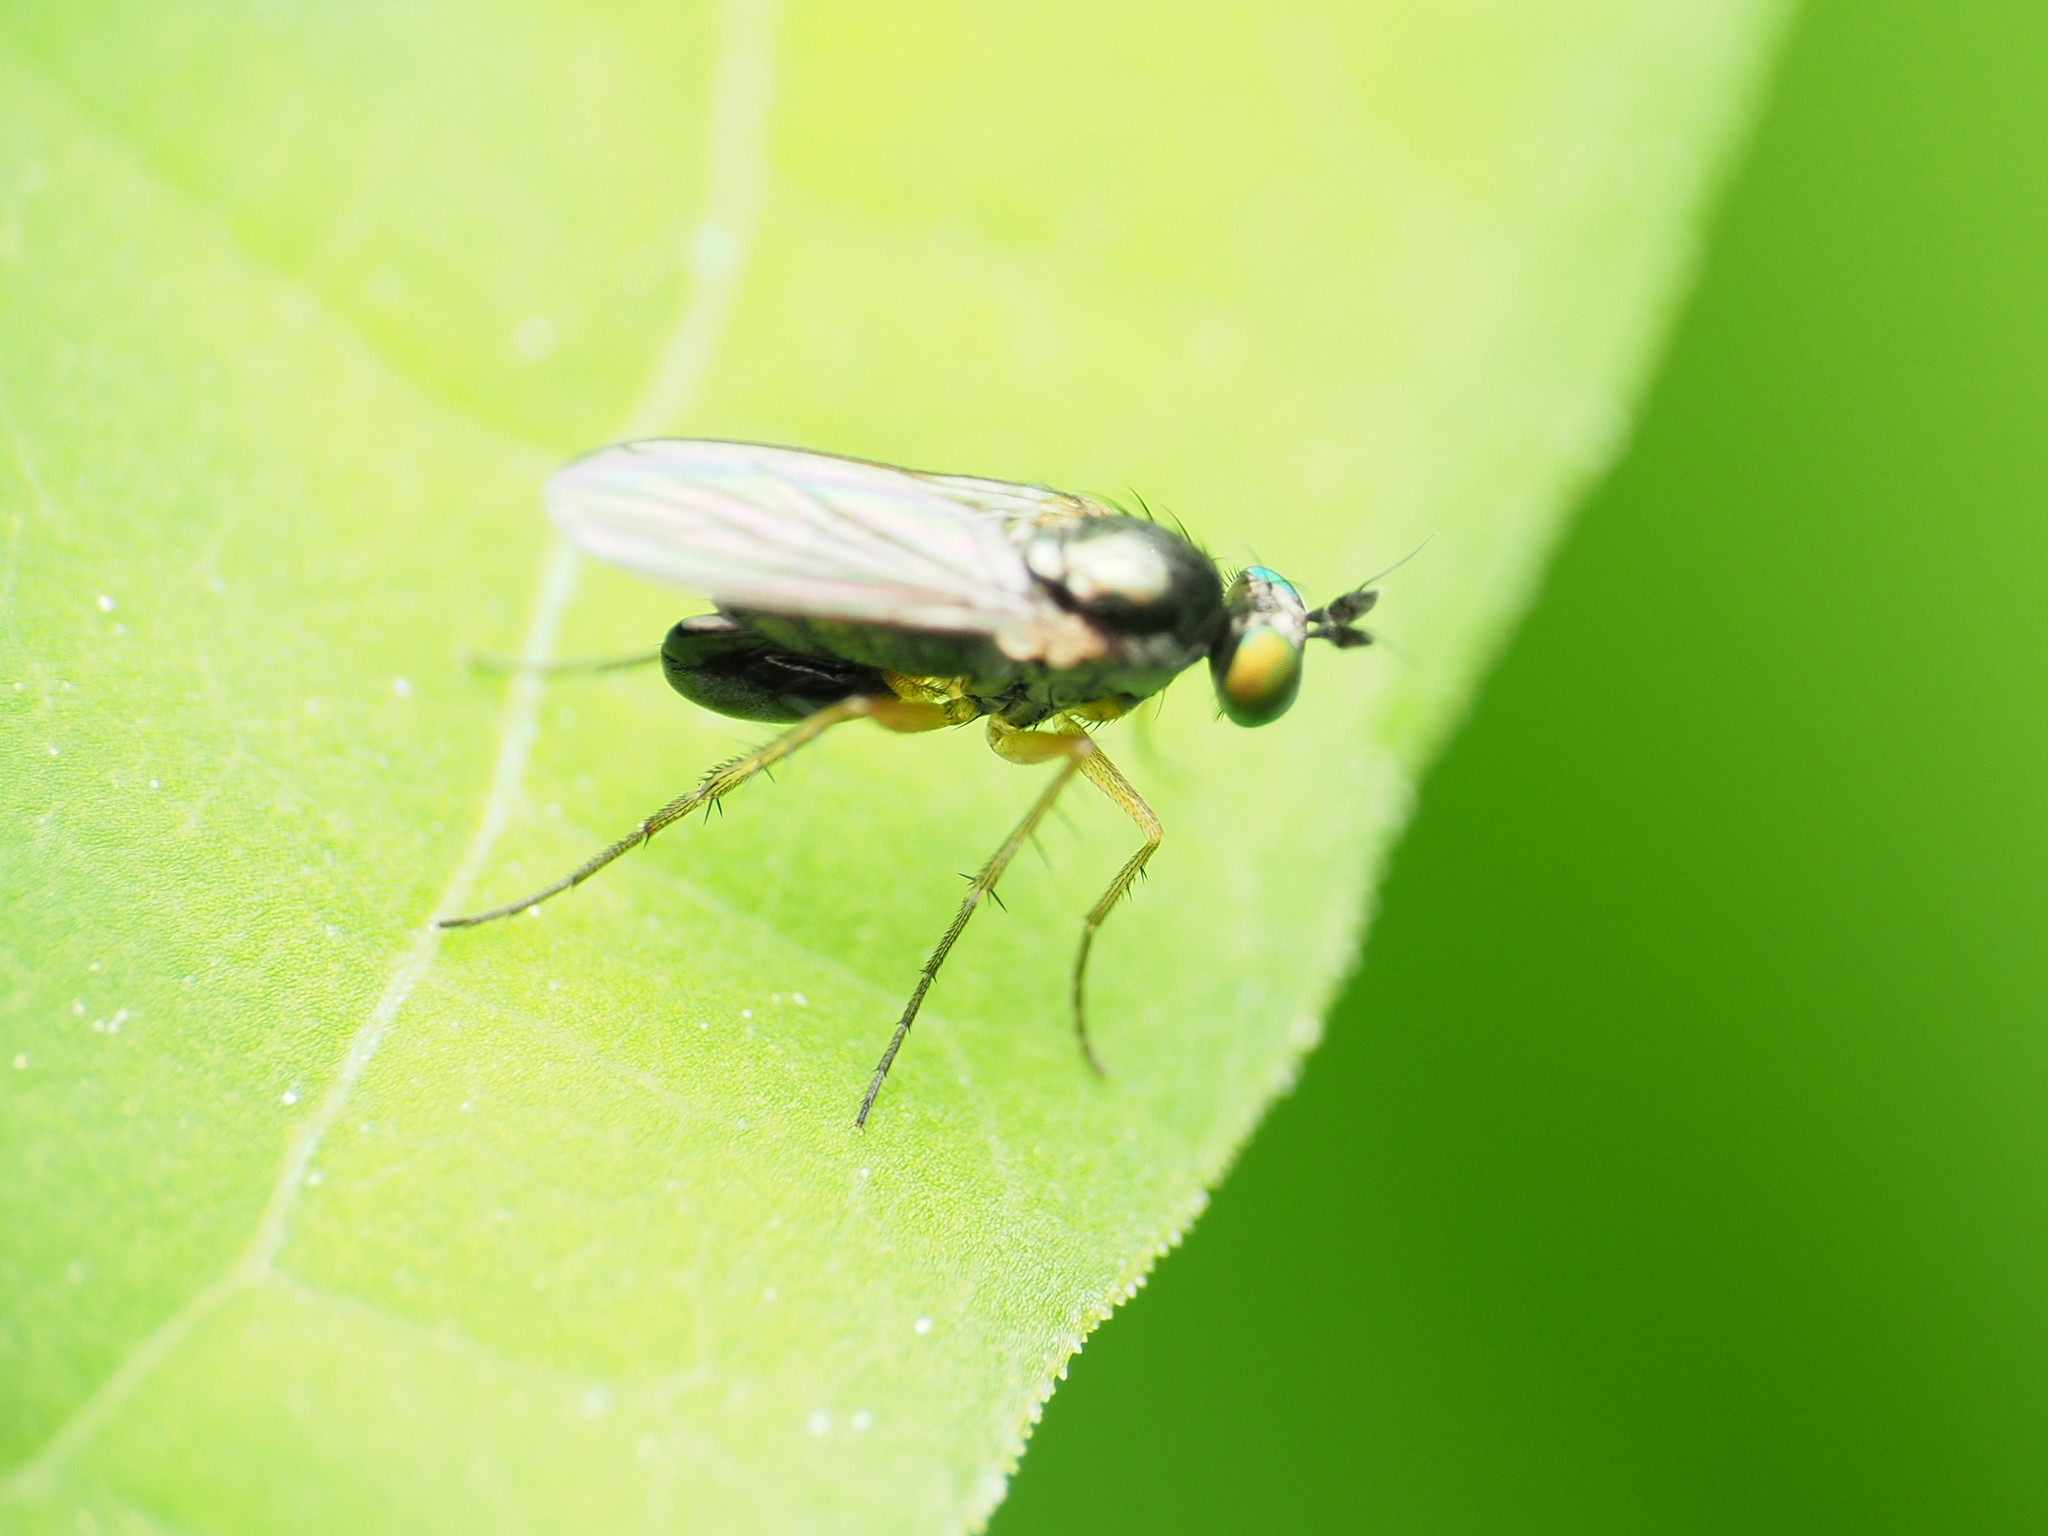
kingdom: Animalia
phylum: Arthropoda
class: Insecta
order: Diptera
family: Dolichopodidae
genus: Gymnopternus
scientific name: Gymnopternus meniscus
